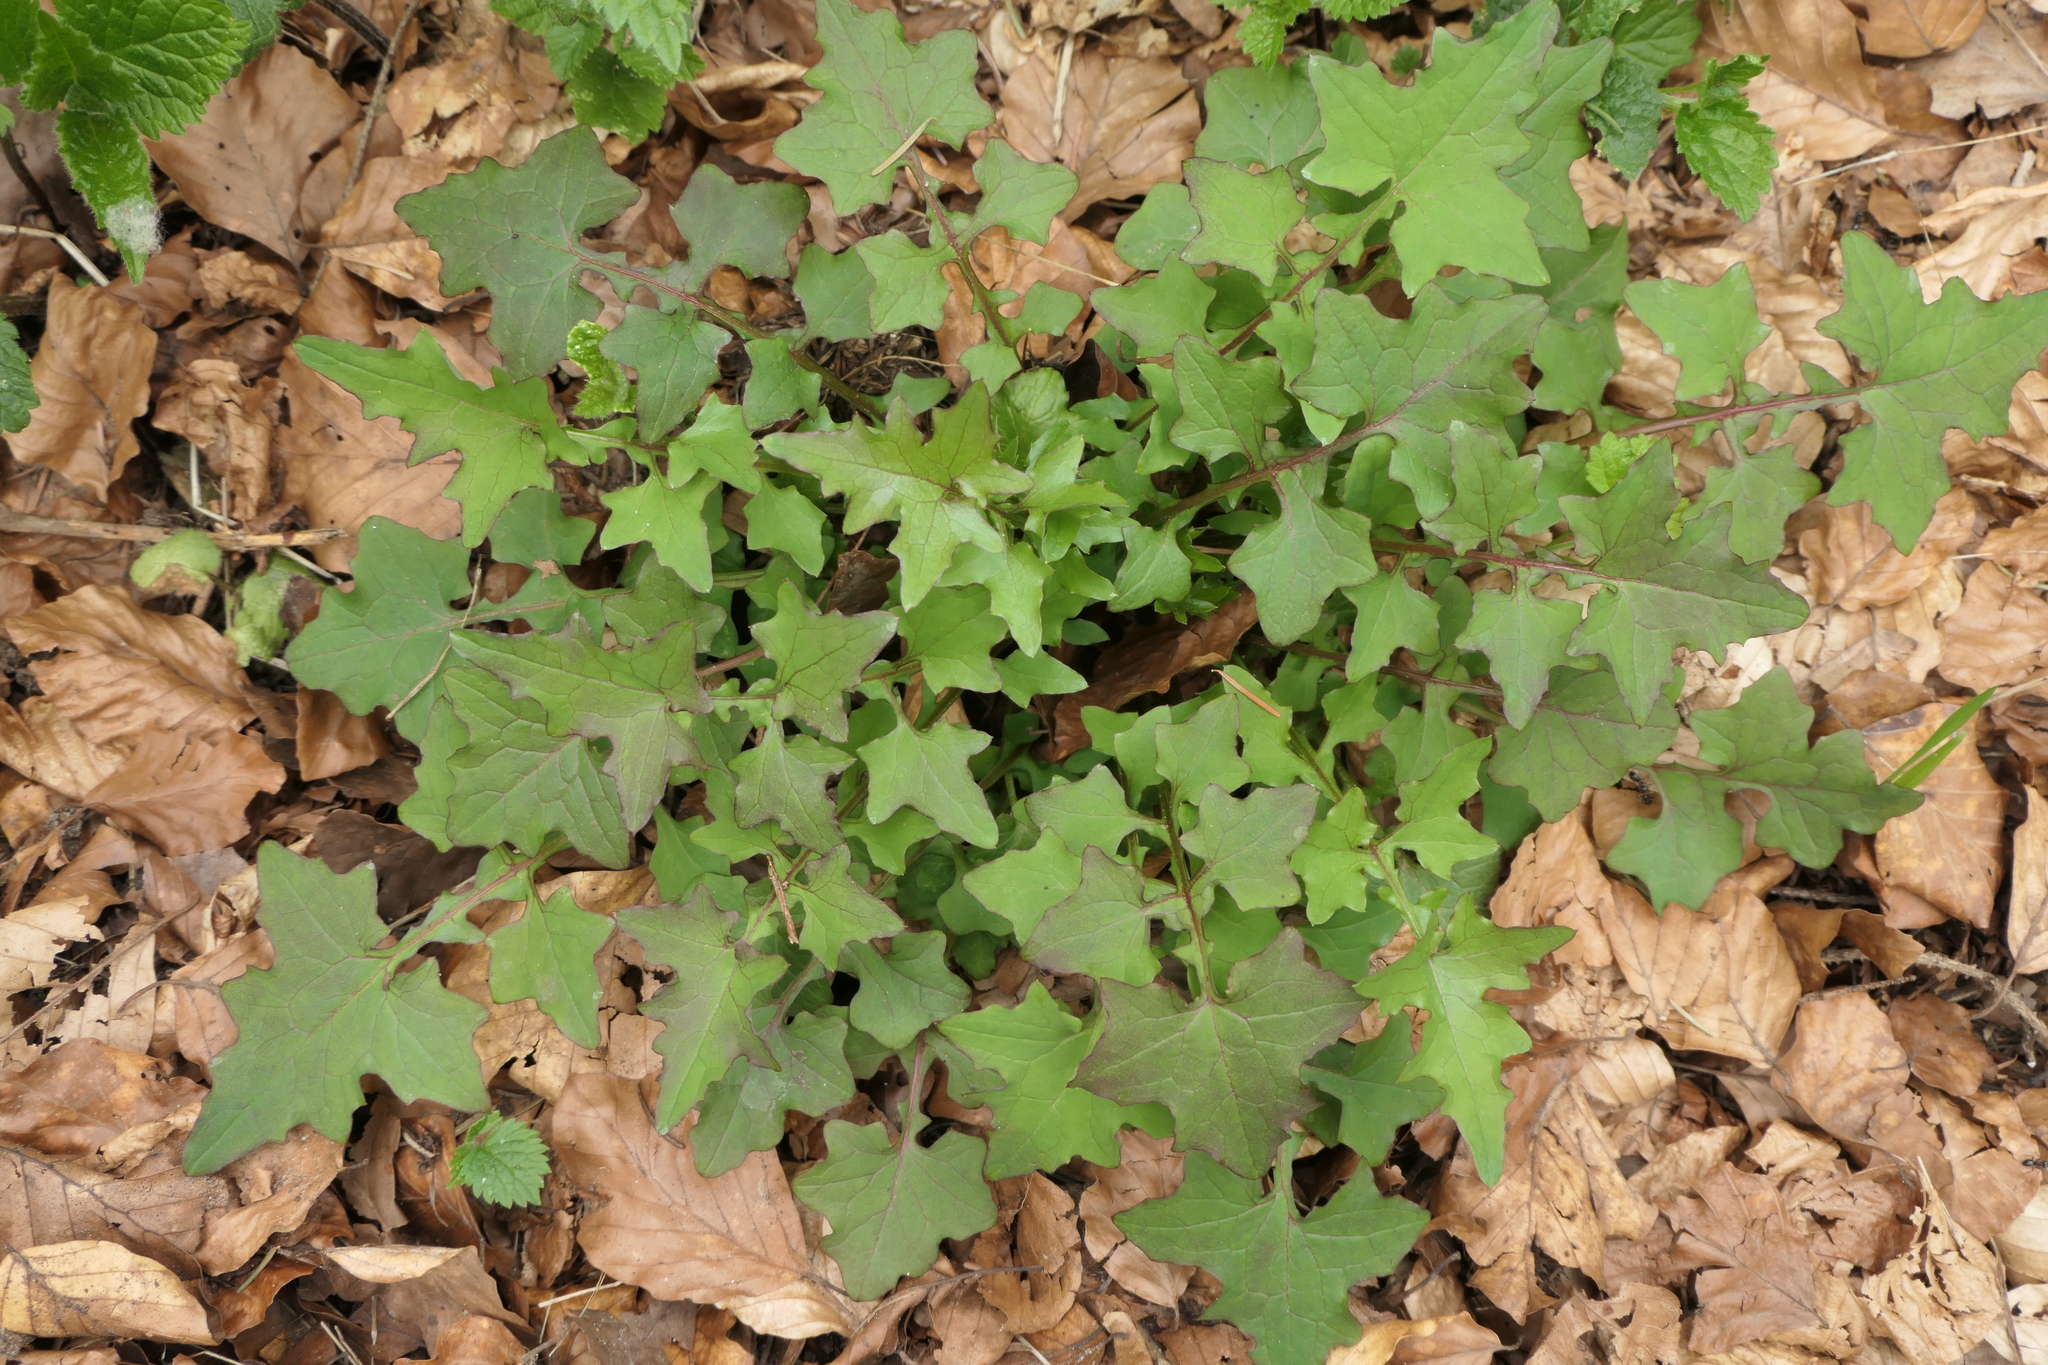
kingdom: Plantae
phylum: Tracheophyta
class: Magnoliopsida
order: Asterales
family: Asteraceae
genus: Mycelis
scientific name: Mycelis muralis
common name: Wall lettuce
